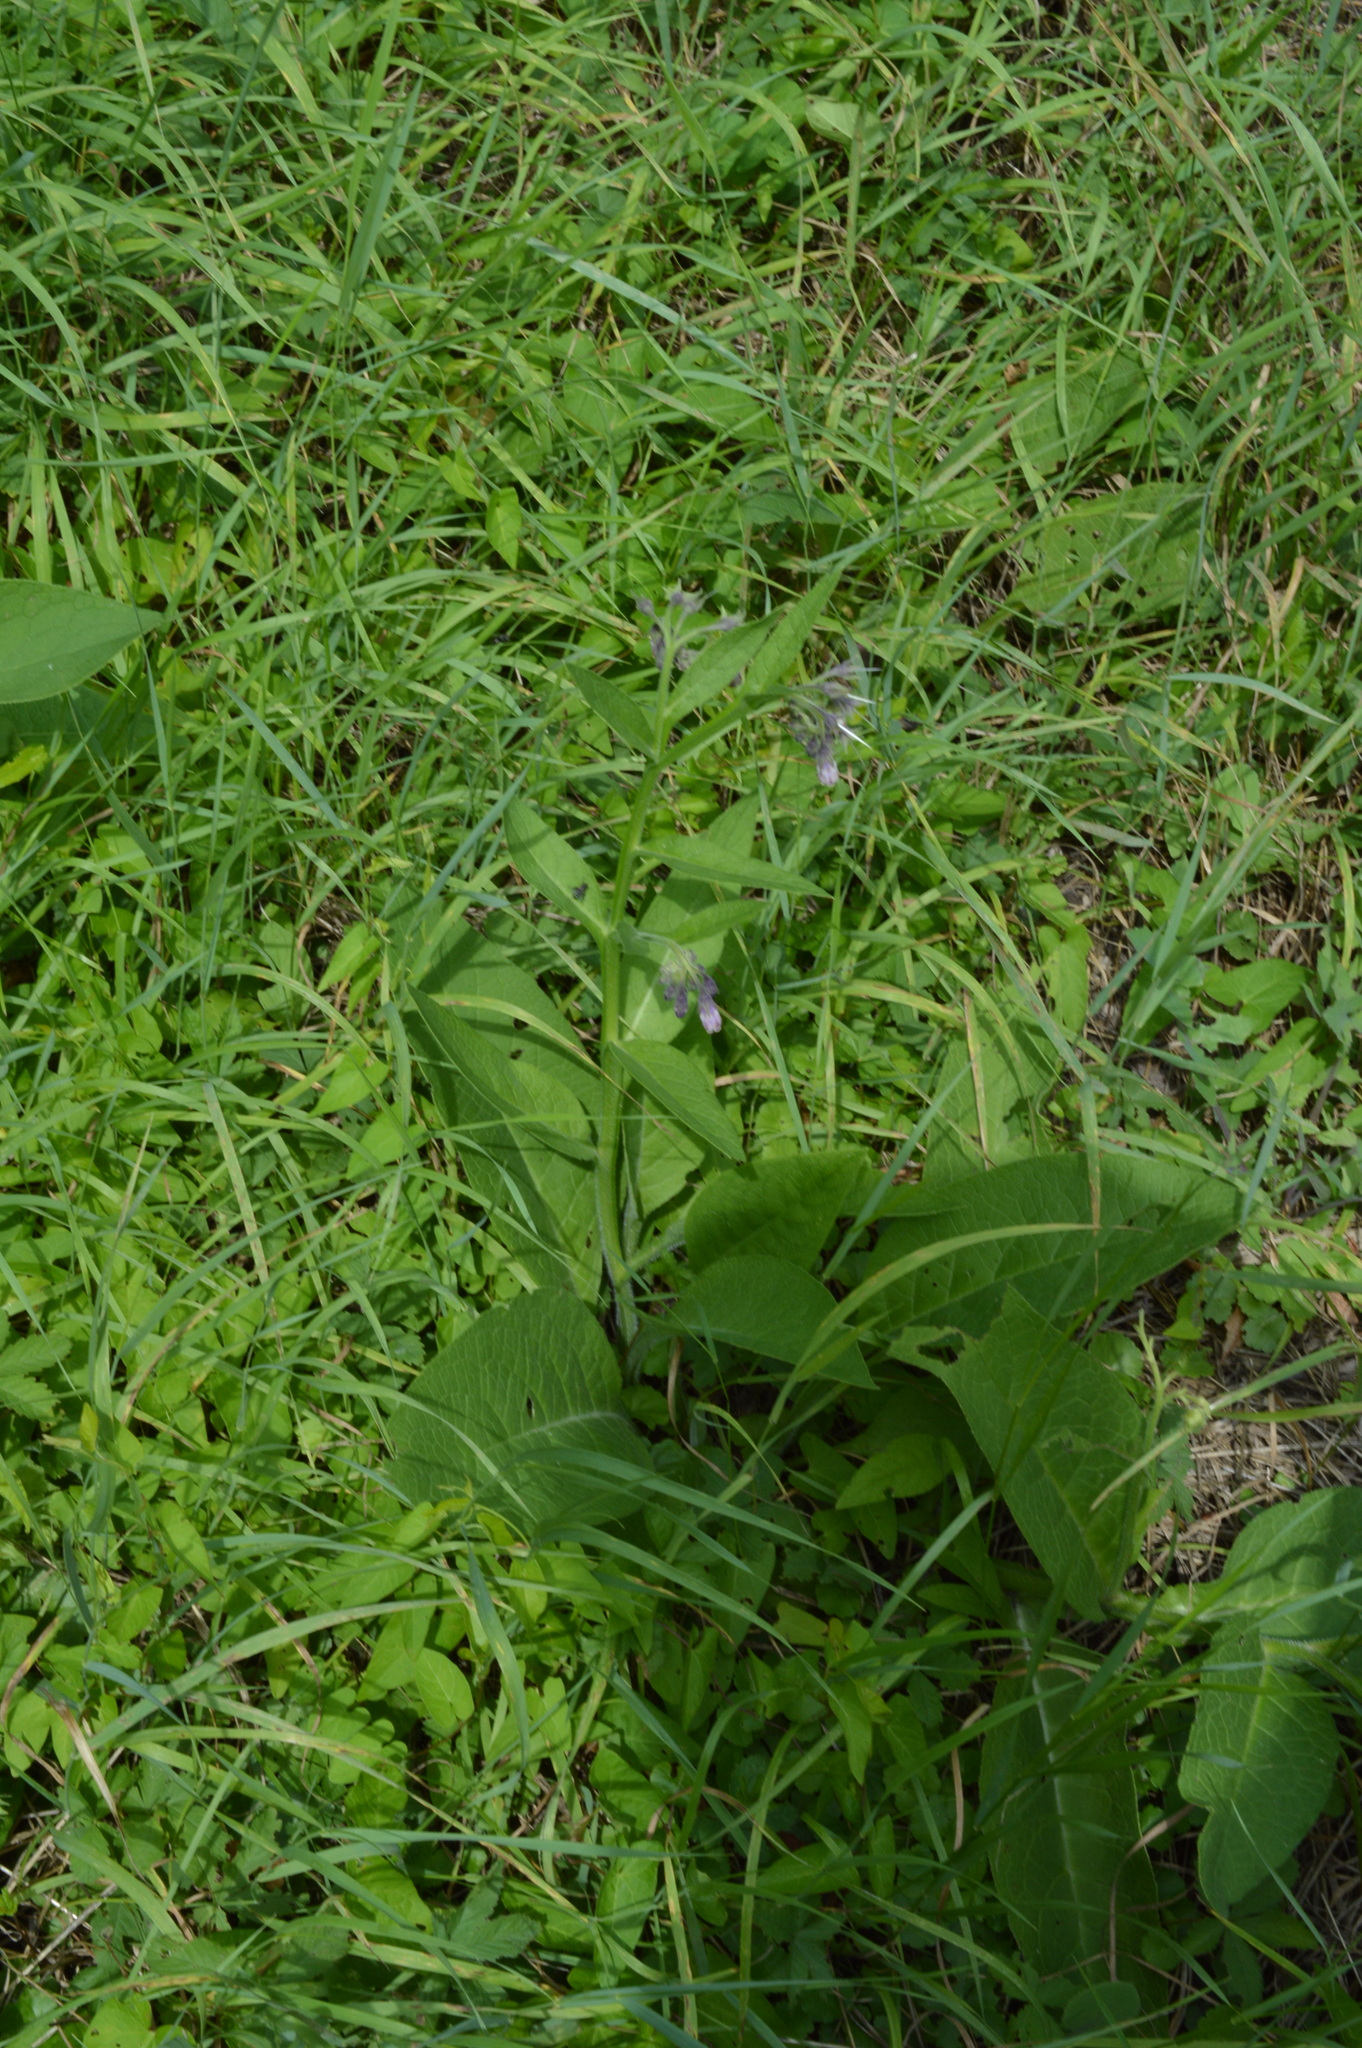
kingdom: Plantae
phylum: Tracheophyta
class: Magnoliopsida
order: Boraginales
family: Boraginaceae
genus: Symphytum
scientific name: Symphytum officinale
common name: Common comfrey
